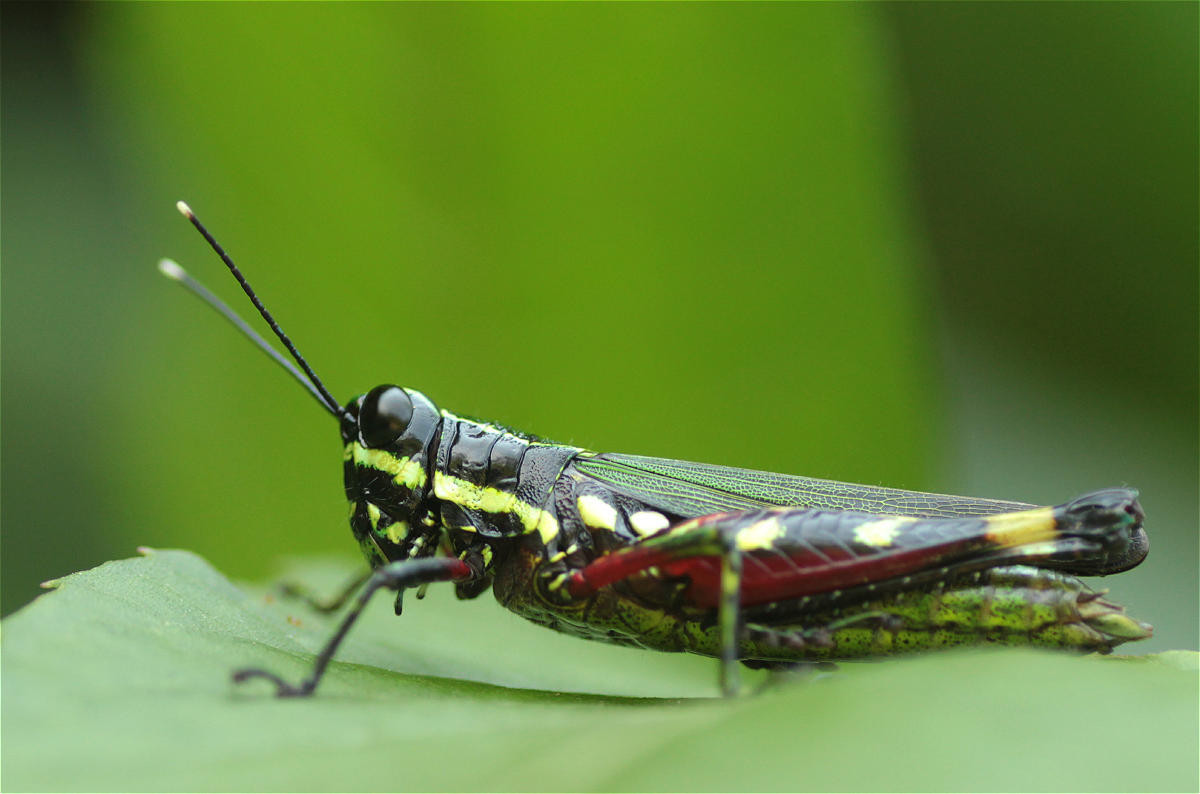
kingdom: Animalia
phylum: Arthropoda
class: Insecta
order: Orthoptera
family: Acrididae
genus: Tetrataenia
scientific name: Tetrataenia surinama
